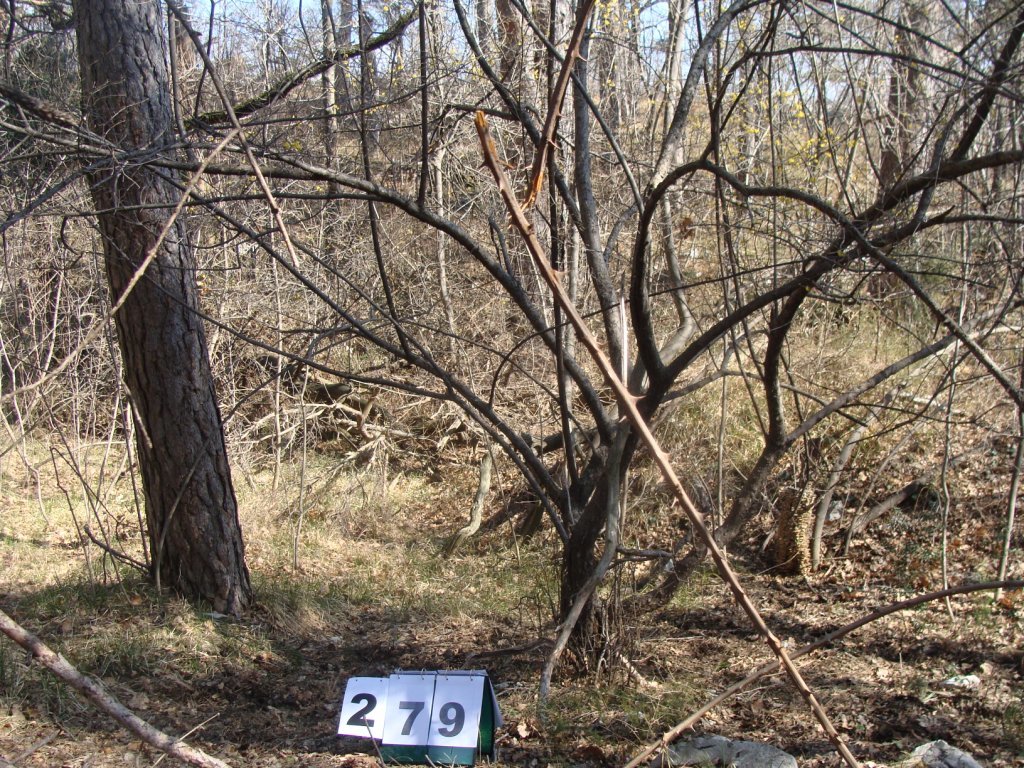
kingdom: Plantae
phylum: Tracheophyta
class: Magnoliopsida
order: Cornales
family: Cornaceae
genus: Cornus
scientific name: Cornus mas
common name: Cornelian-cherry
